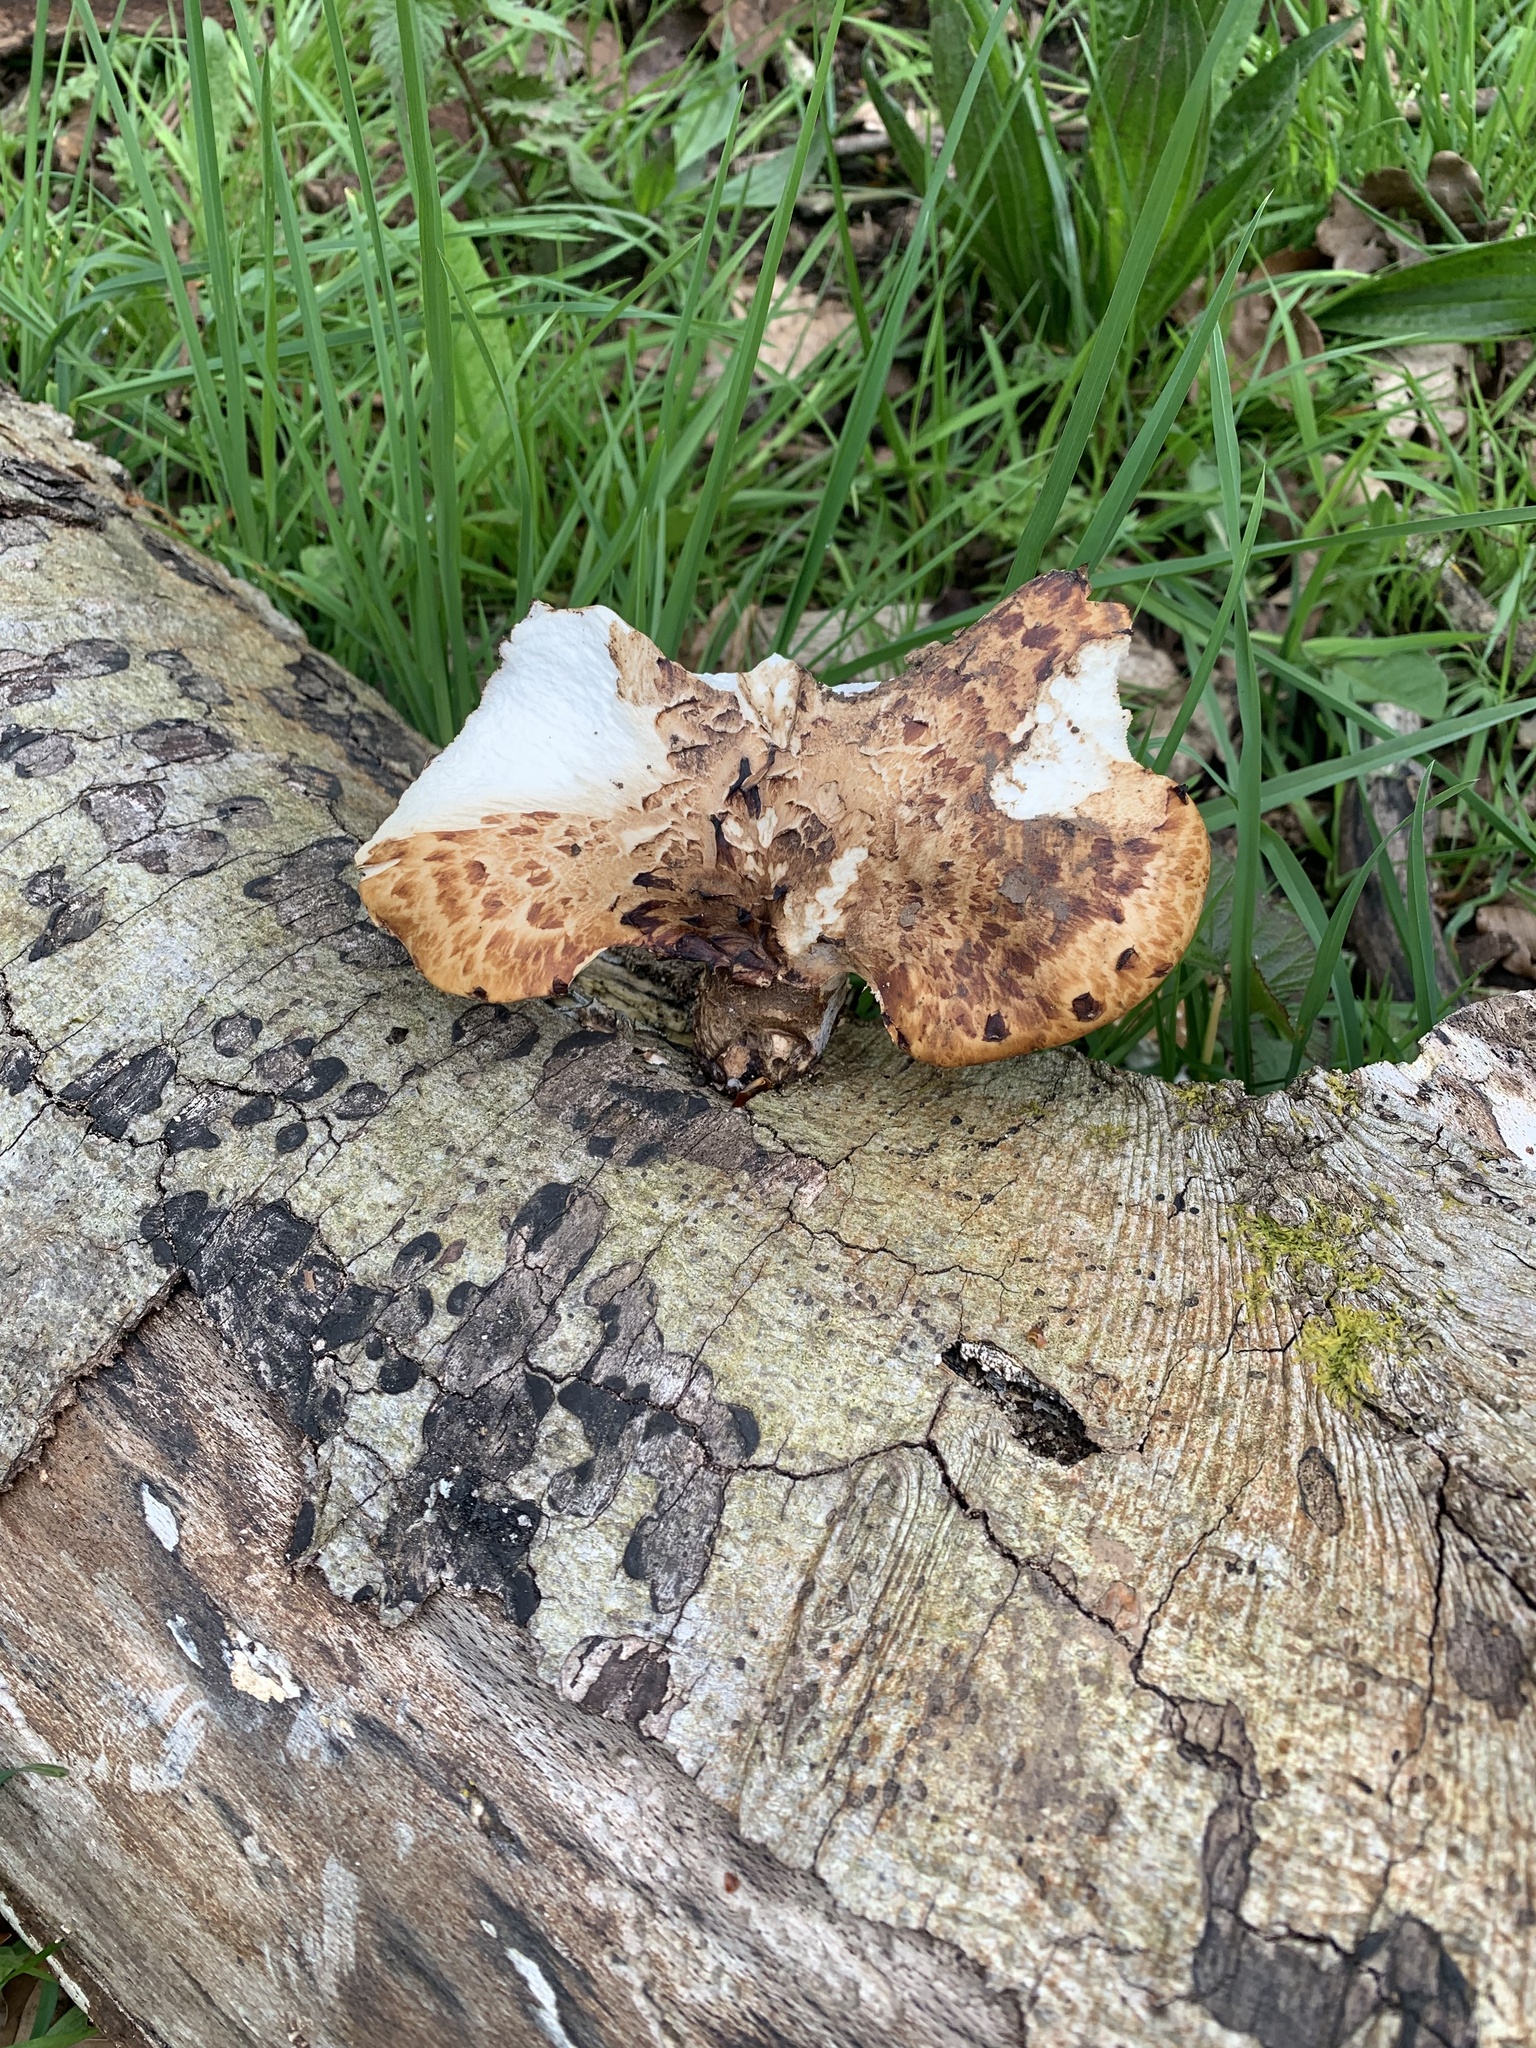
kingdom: Fungi
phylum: Basidiomycota
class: Agaricomycetes
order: Polyporales
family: Polyporaceae
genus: Polyporus
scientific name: Polyporus tuberaster
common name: Tuberous polypore
